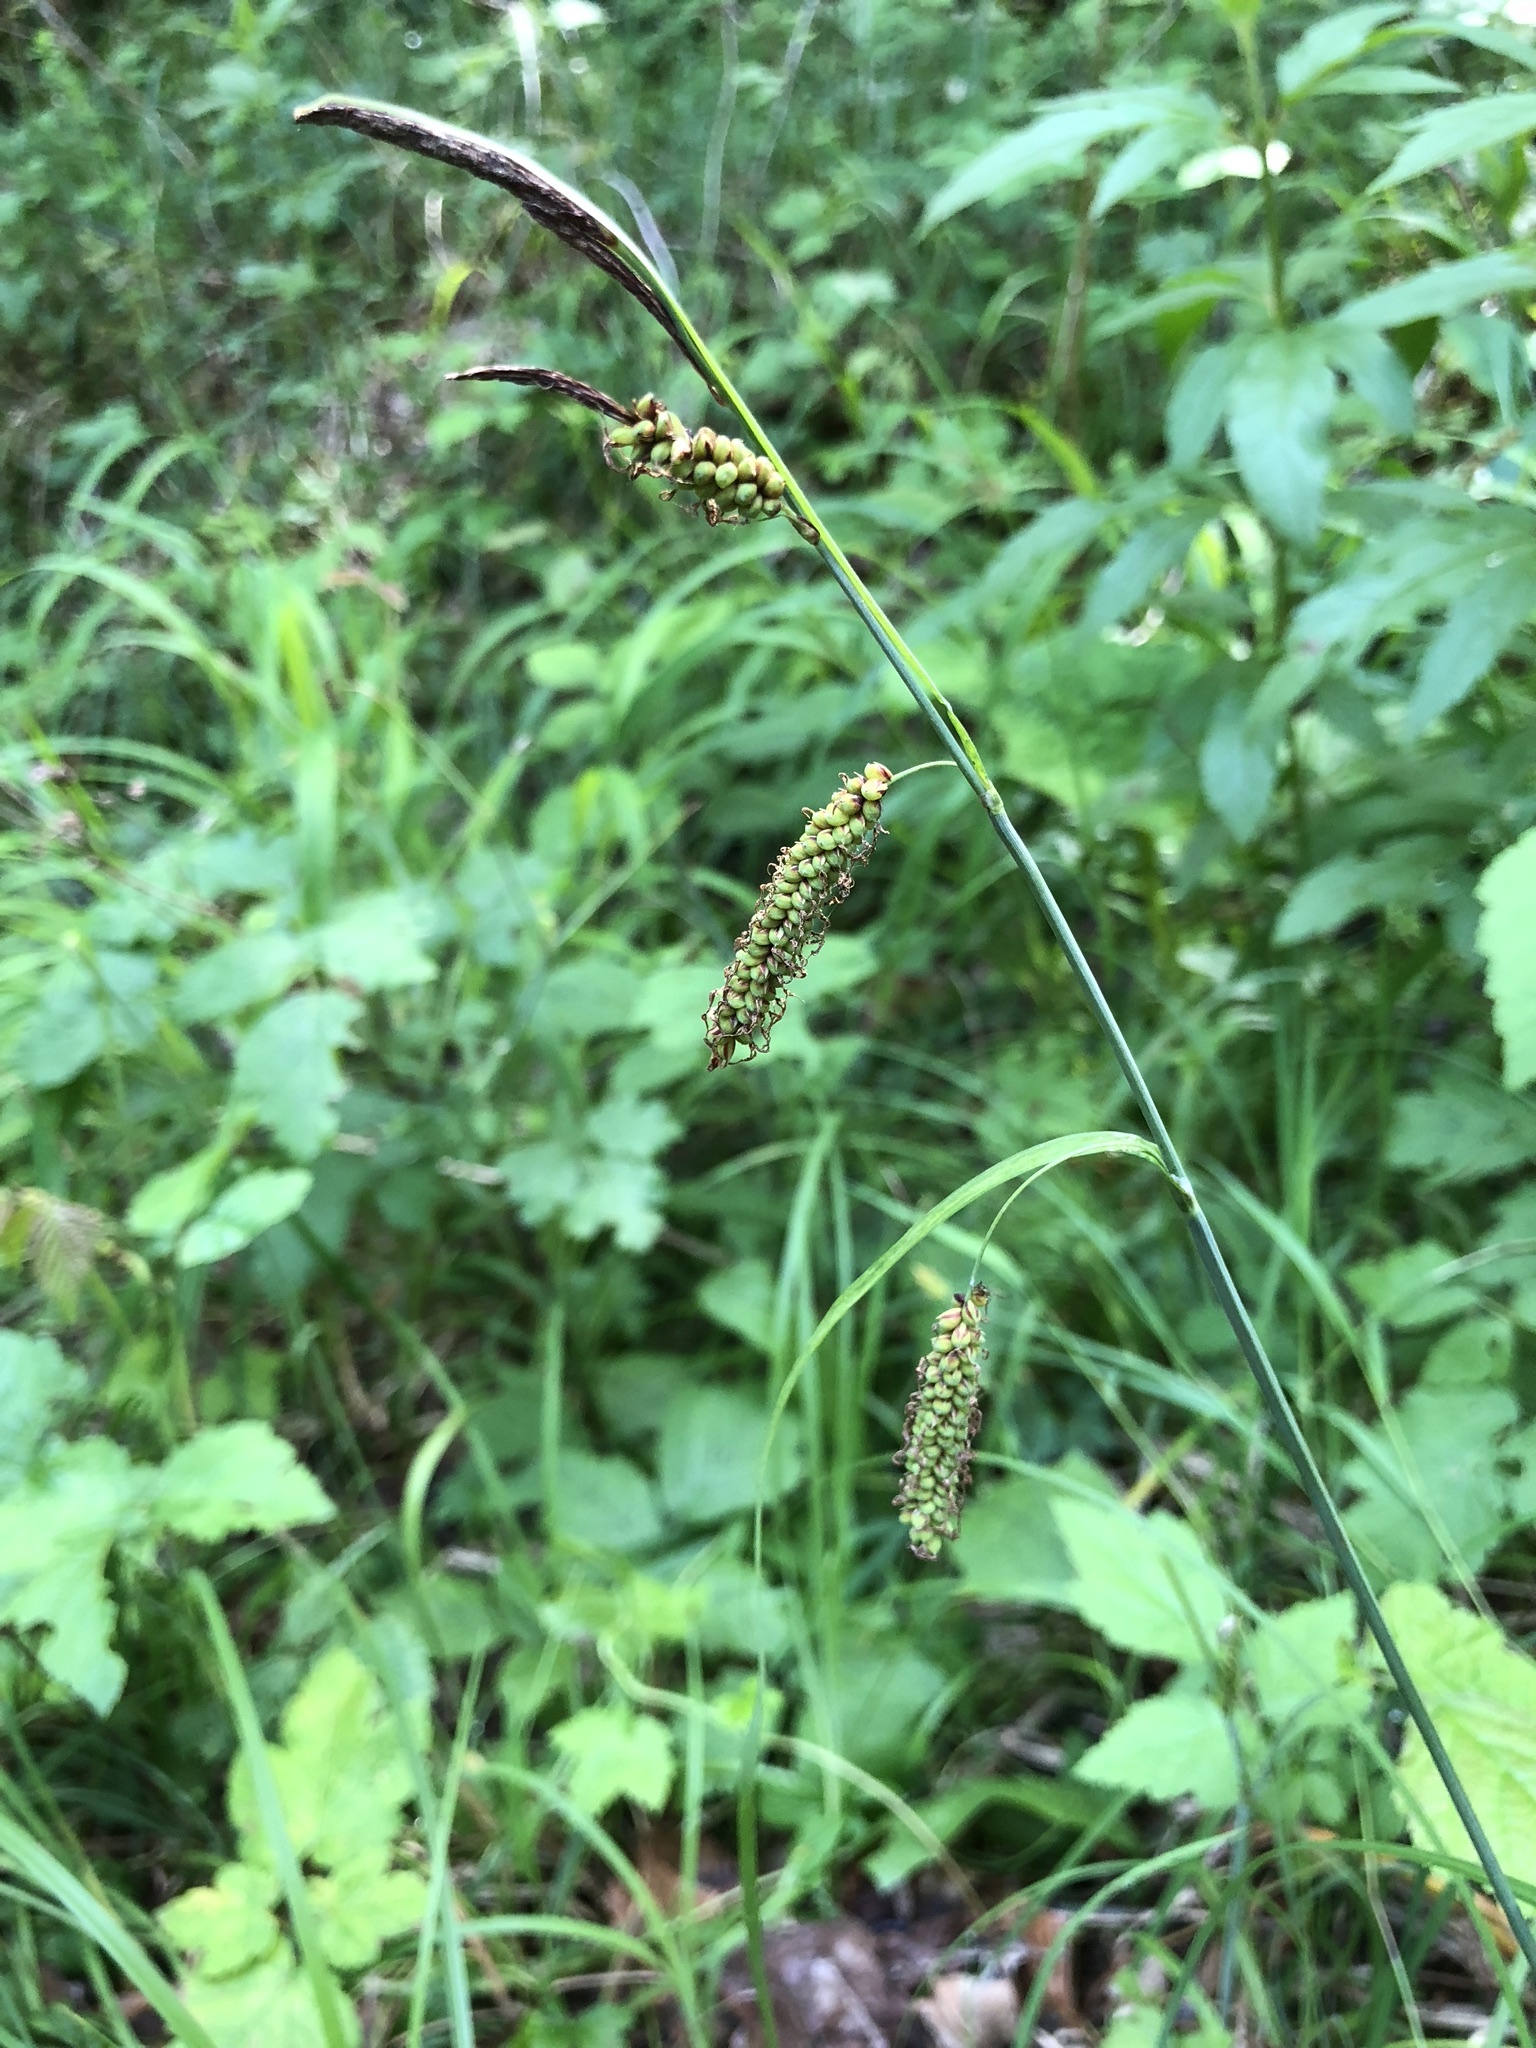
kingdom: Plantae
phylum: Tracheophyta
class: Liliopsida
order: Poales
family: Cyperaceae
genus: Carex
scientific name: Carex flacca
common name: Glaucous sedge
